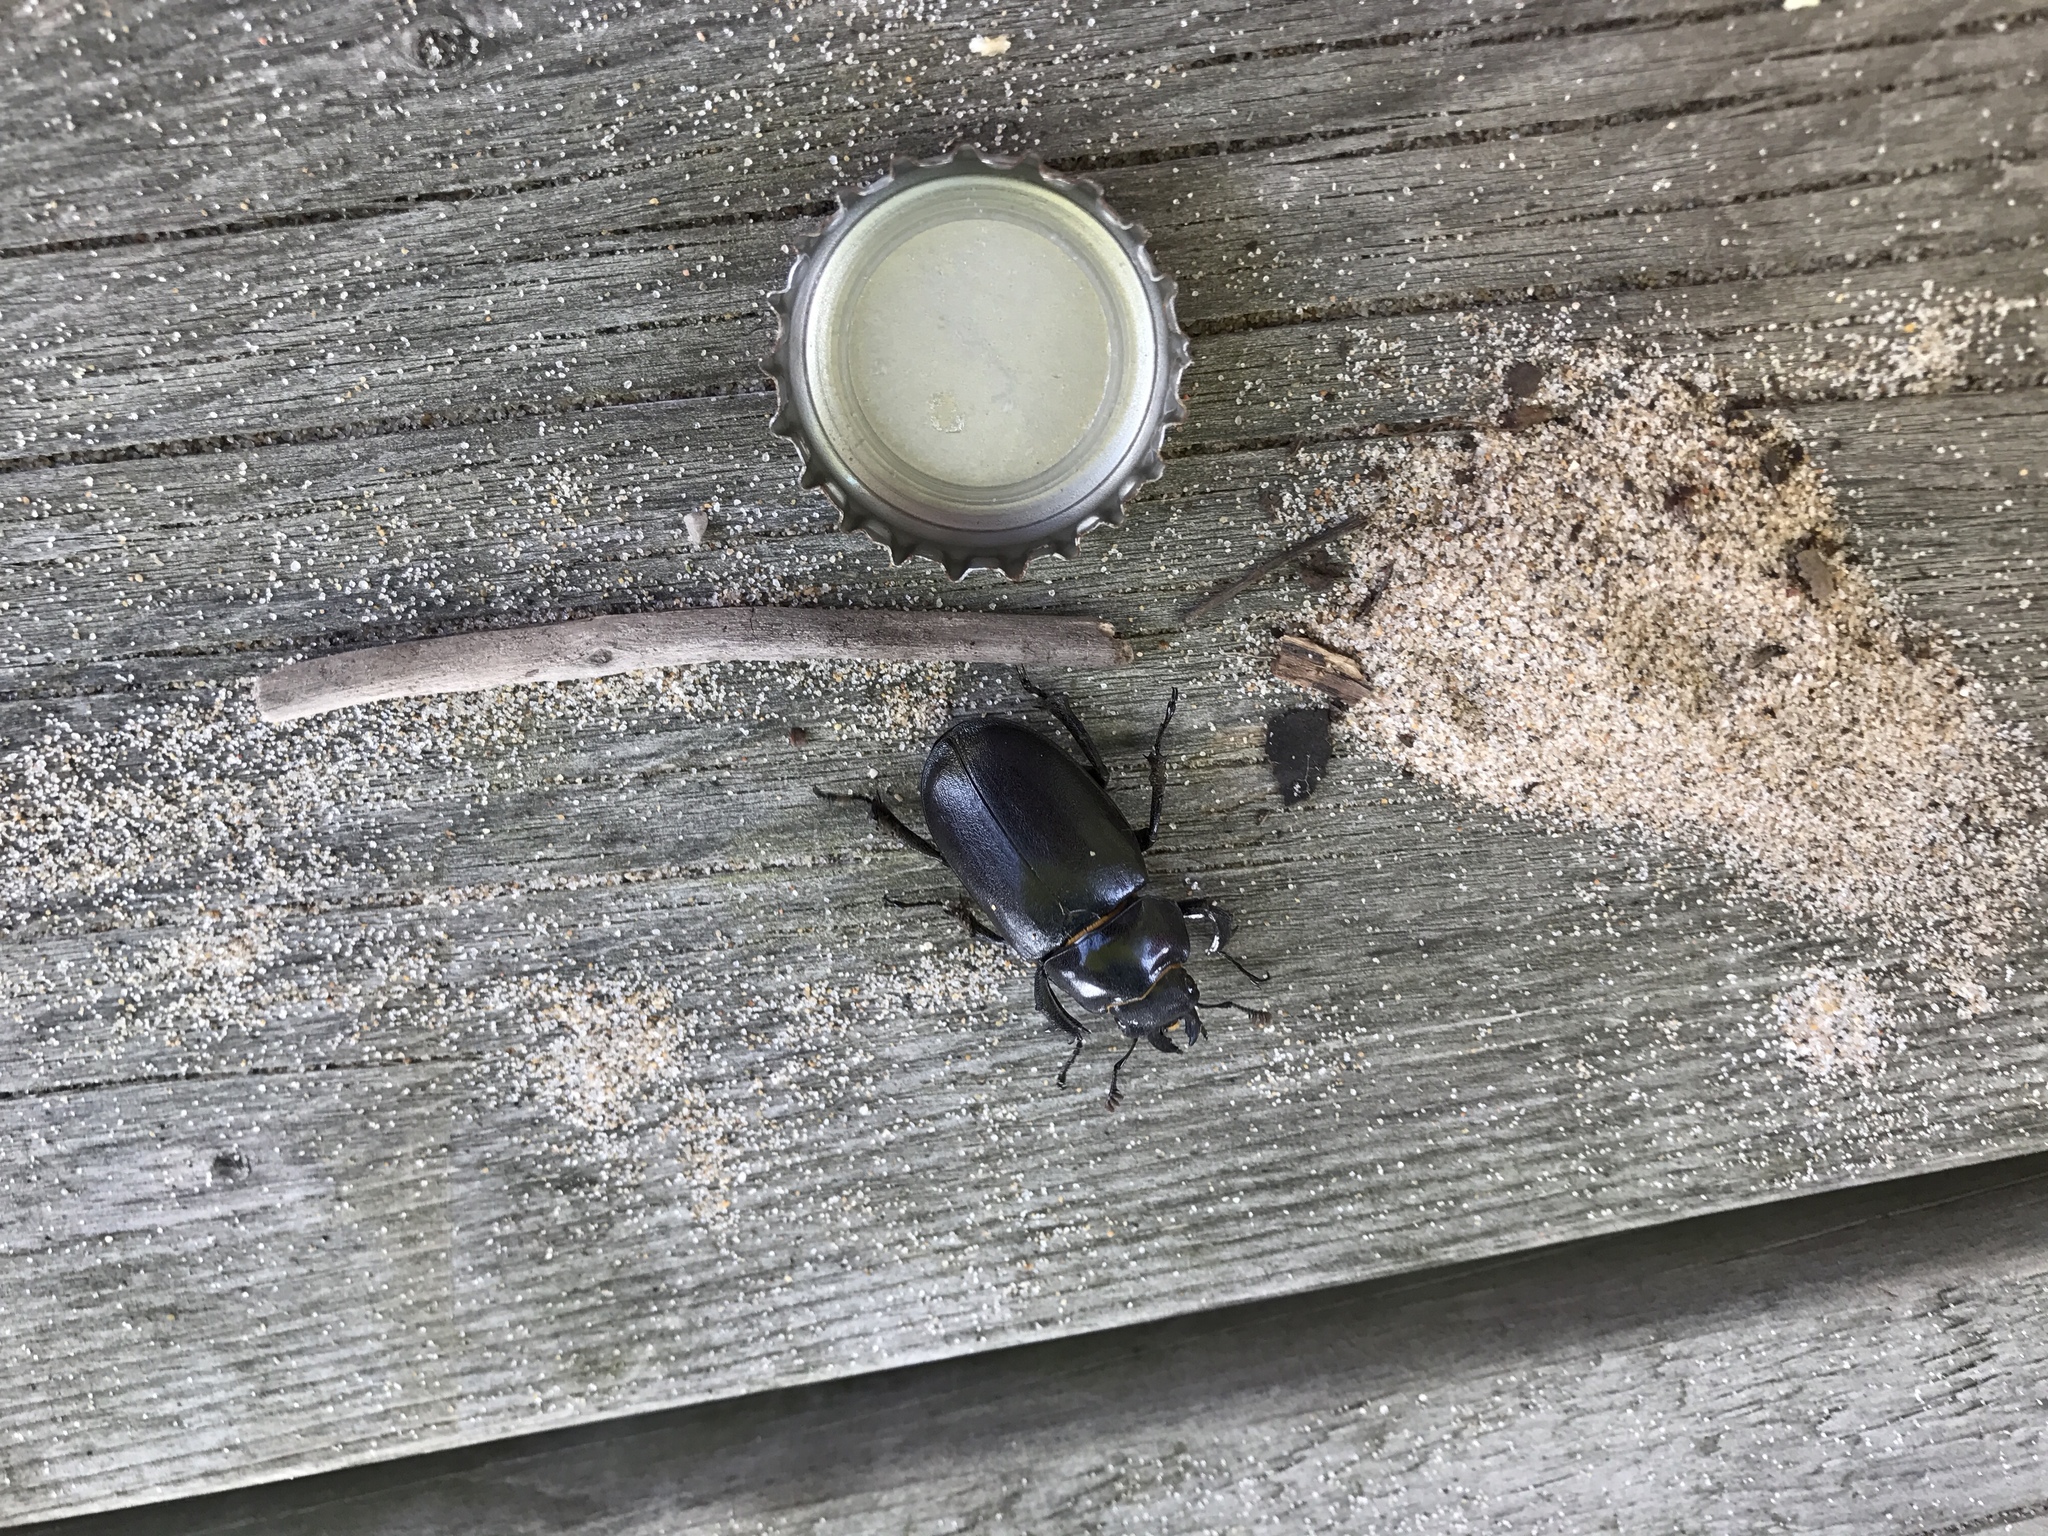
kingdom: Animalia
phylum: Arthropoda
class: Insecta
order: Coleoptera
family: Lucanidae
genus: Lucanus
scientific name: Lucanus placidus
